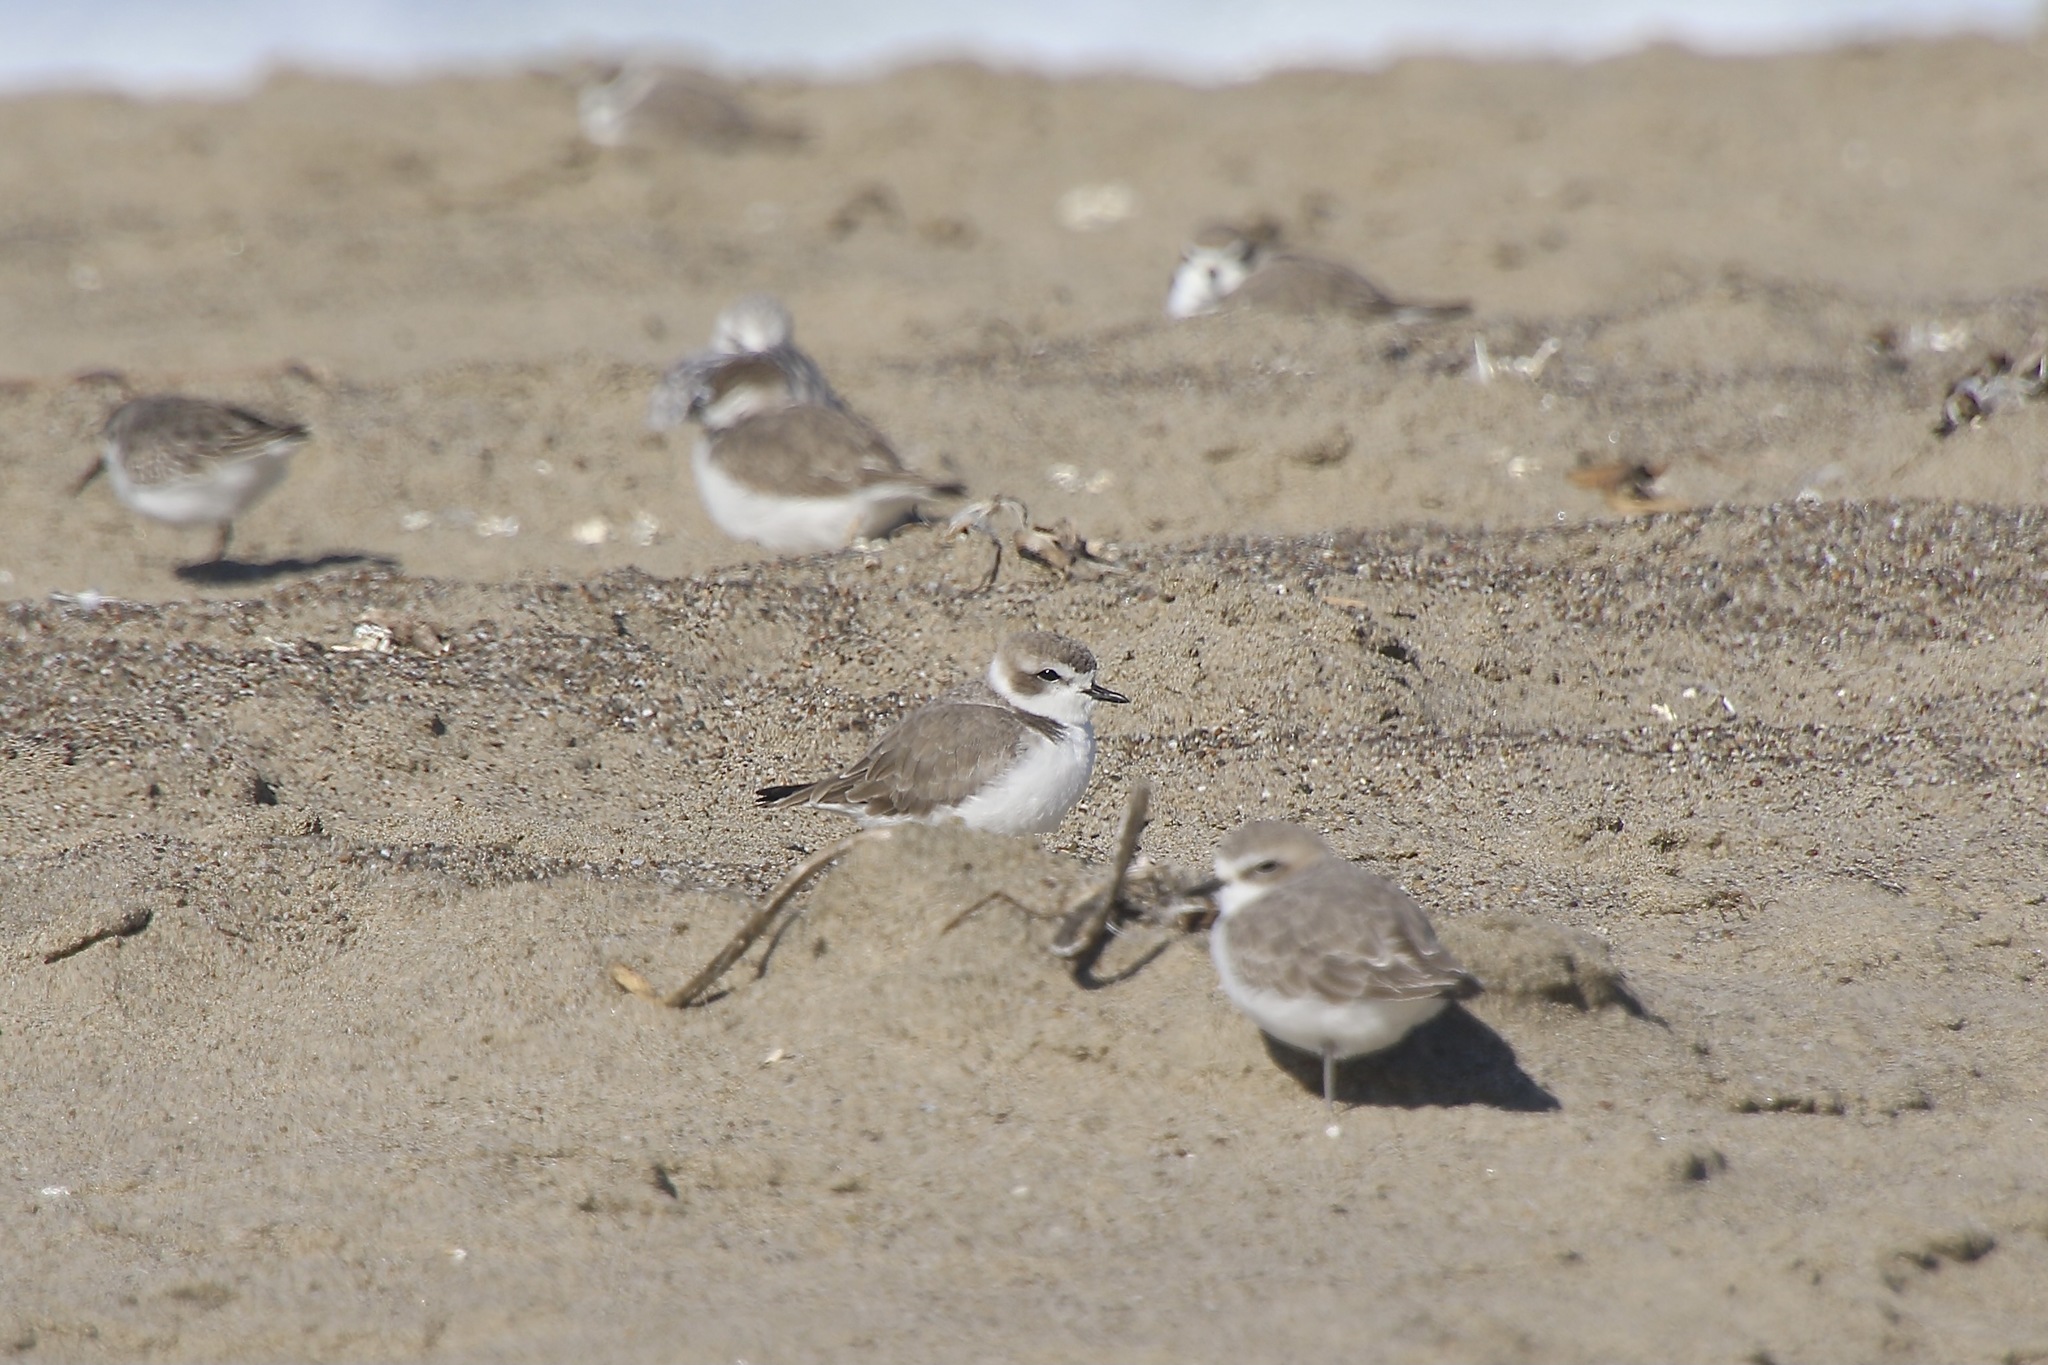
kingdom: Animalia
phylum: Chordata
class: Aves
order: Charadriiformes
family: Charadriidae
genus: Anarhynchus
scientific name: Anarhynchus
